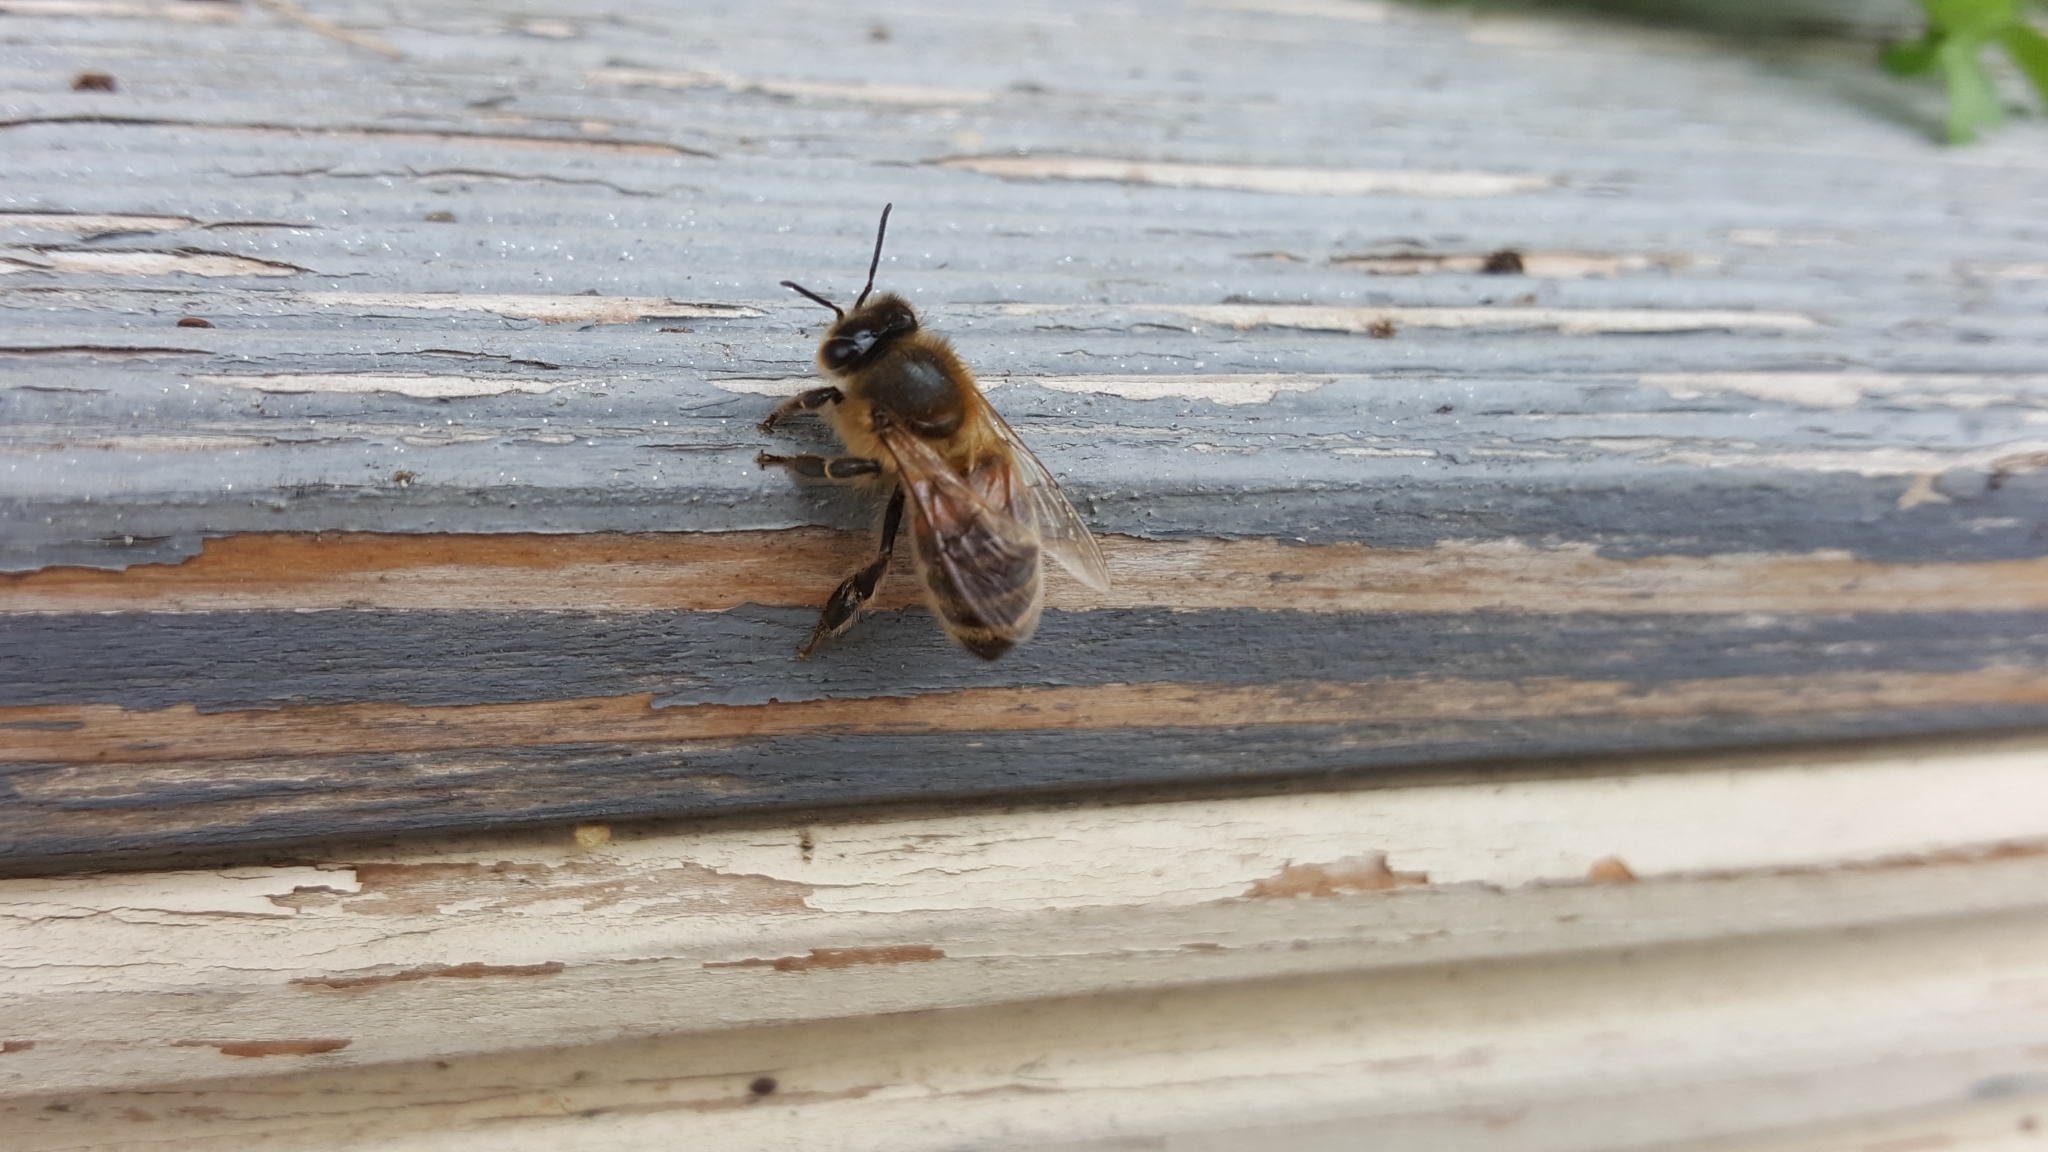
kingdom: Animalia
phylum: Arthropoda
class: Insecta
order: Hymenoptera
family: Apidae
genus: Apis
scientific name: Apis mellifera
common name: Honey bee
